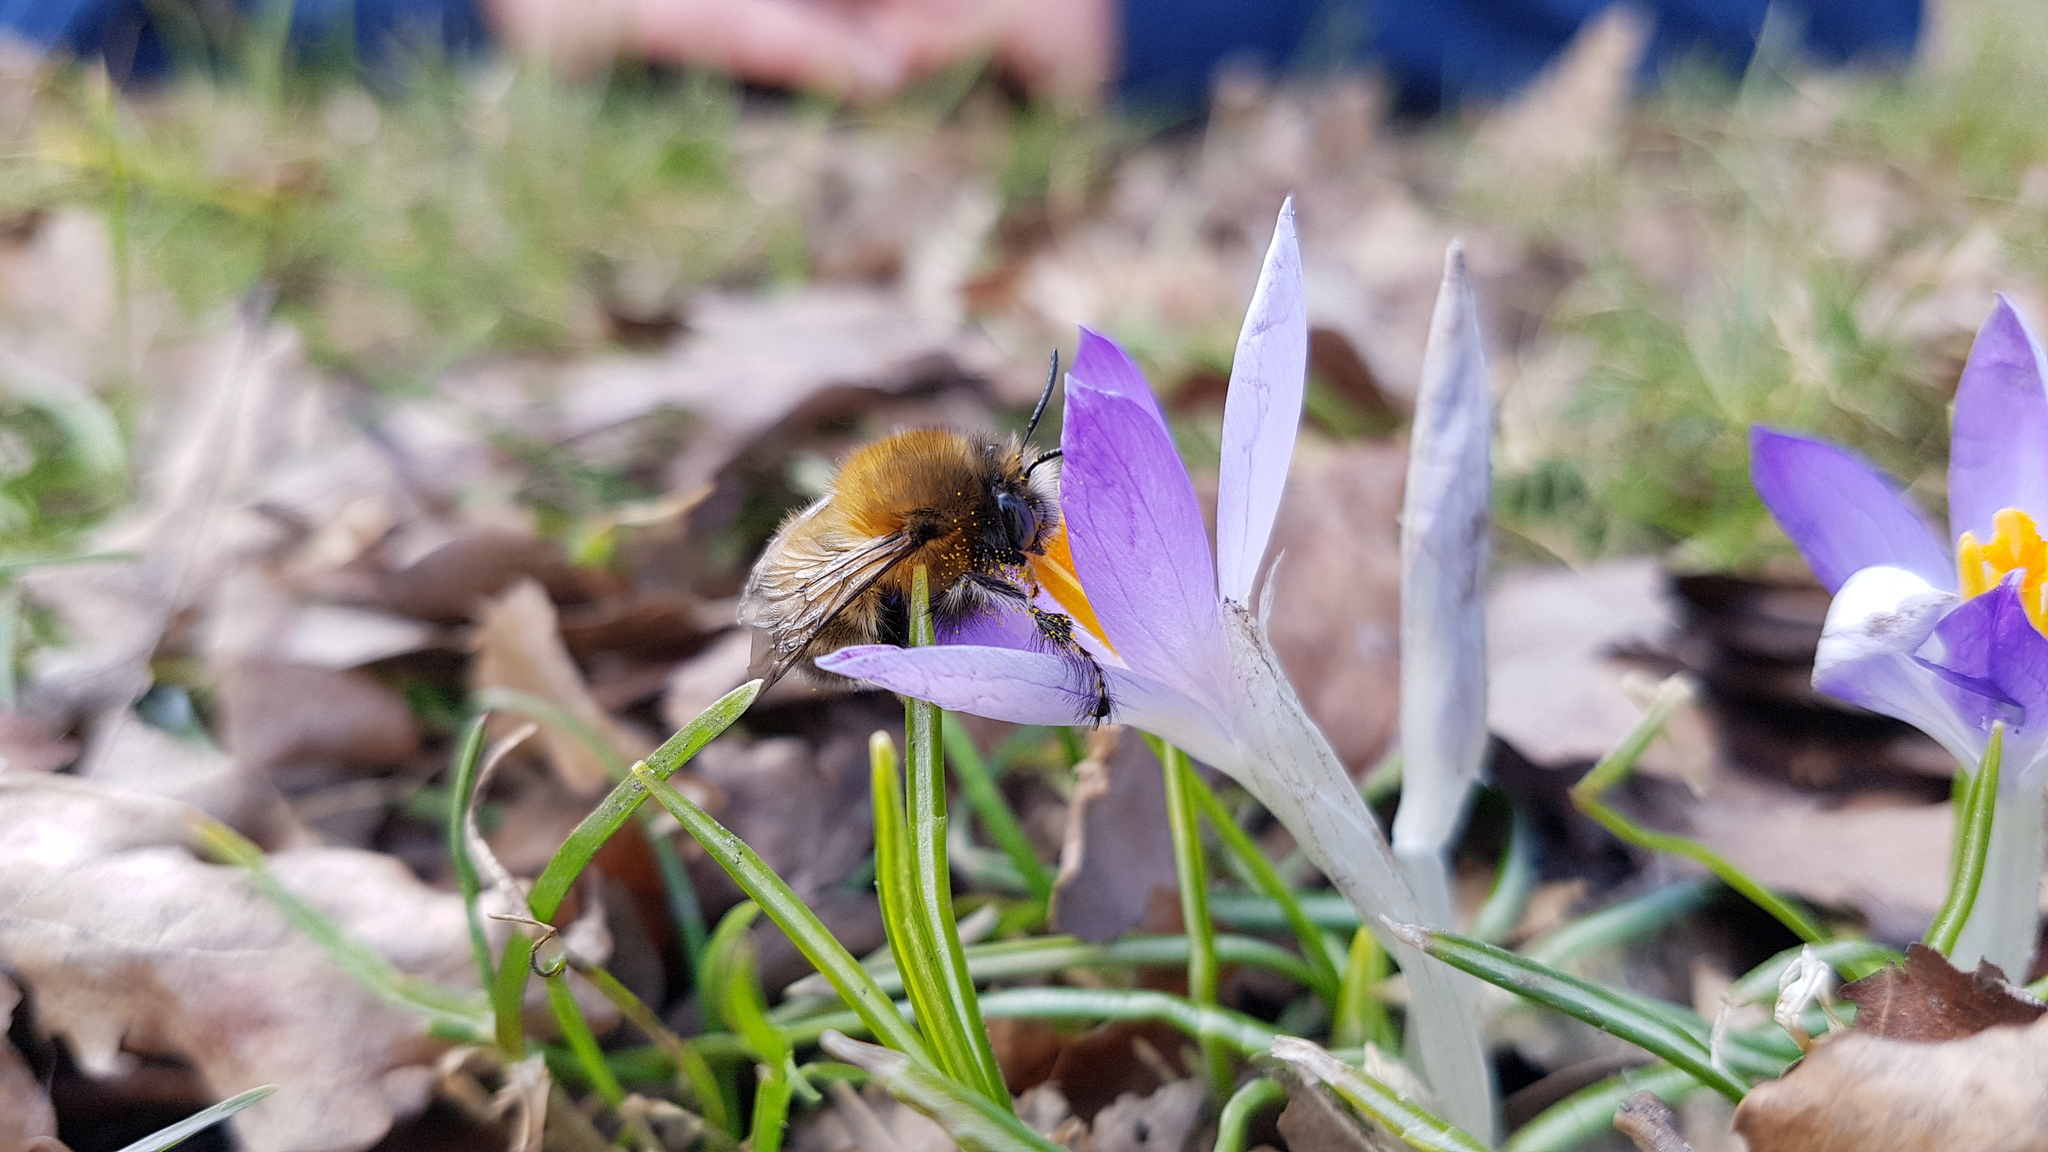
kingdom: Animalia
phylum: Arthropoda
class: Insecta
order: Hymenoptera
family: Apidae
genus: Anthophora
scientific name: Anthophora plumipes
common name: Hairy-footed flower bee
